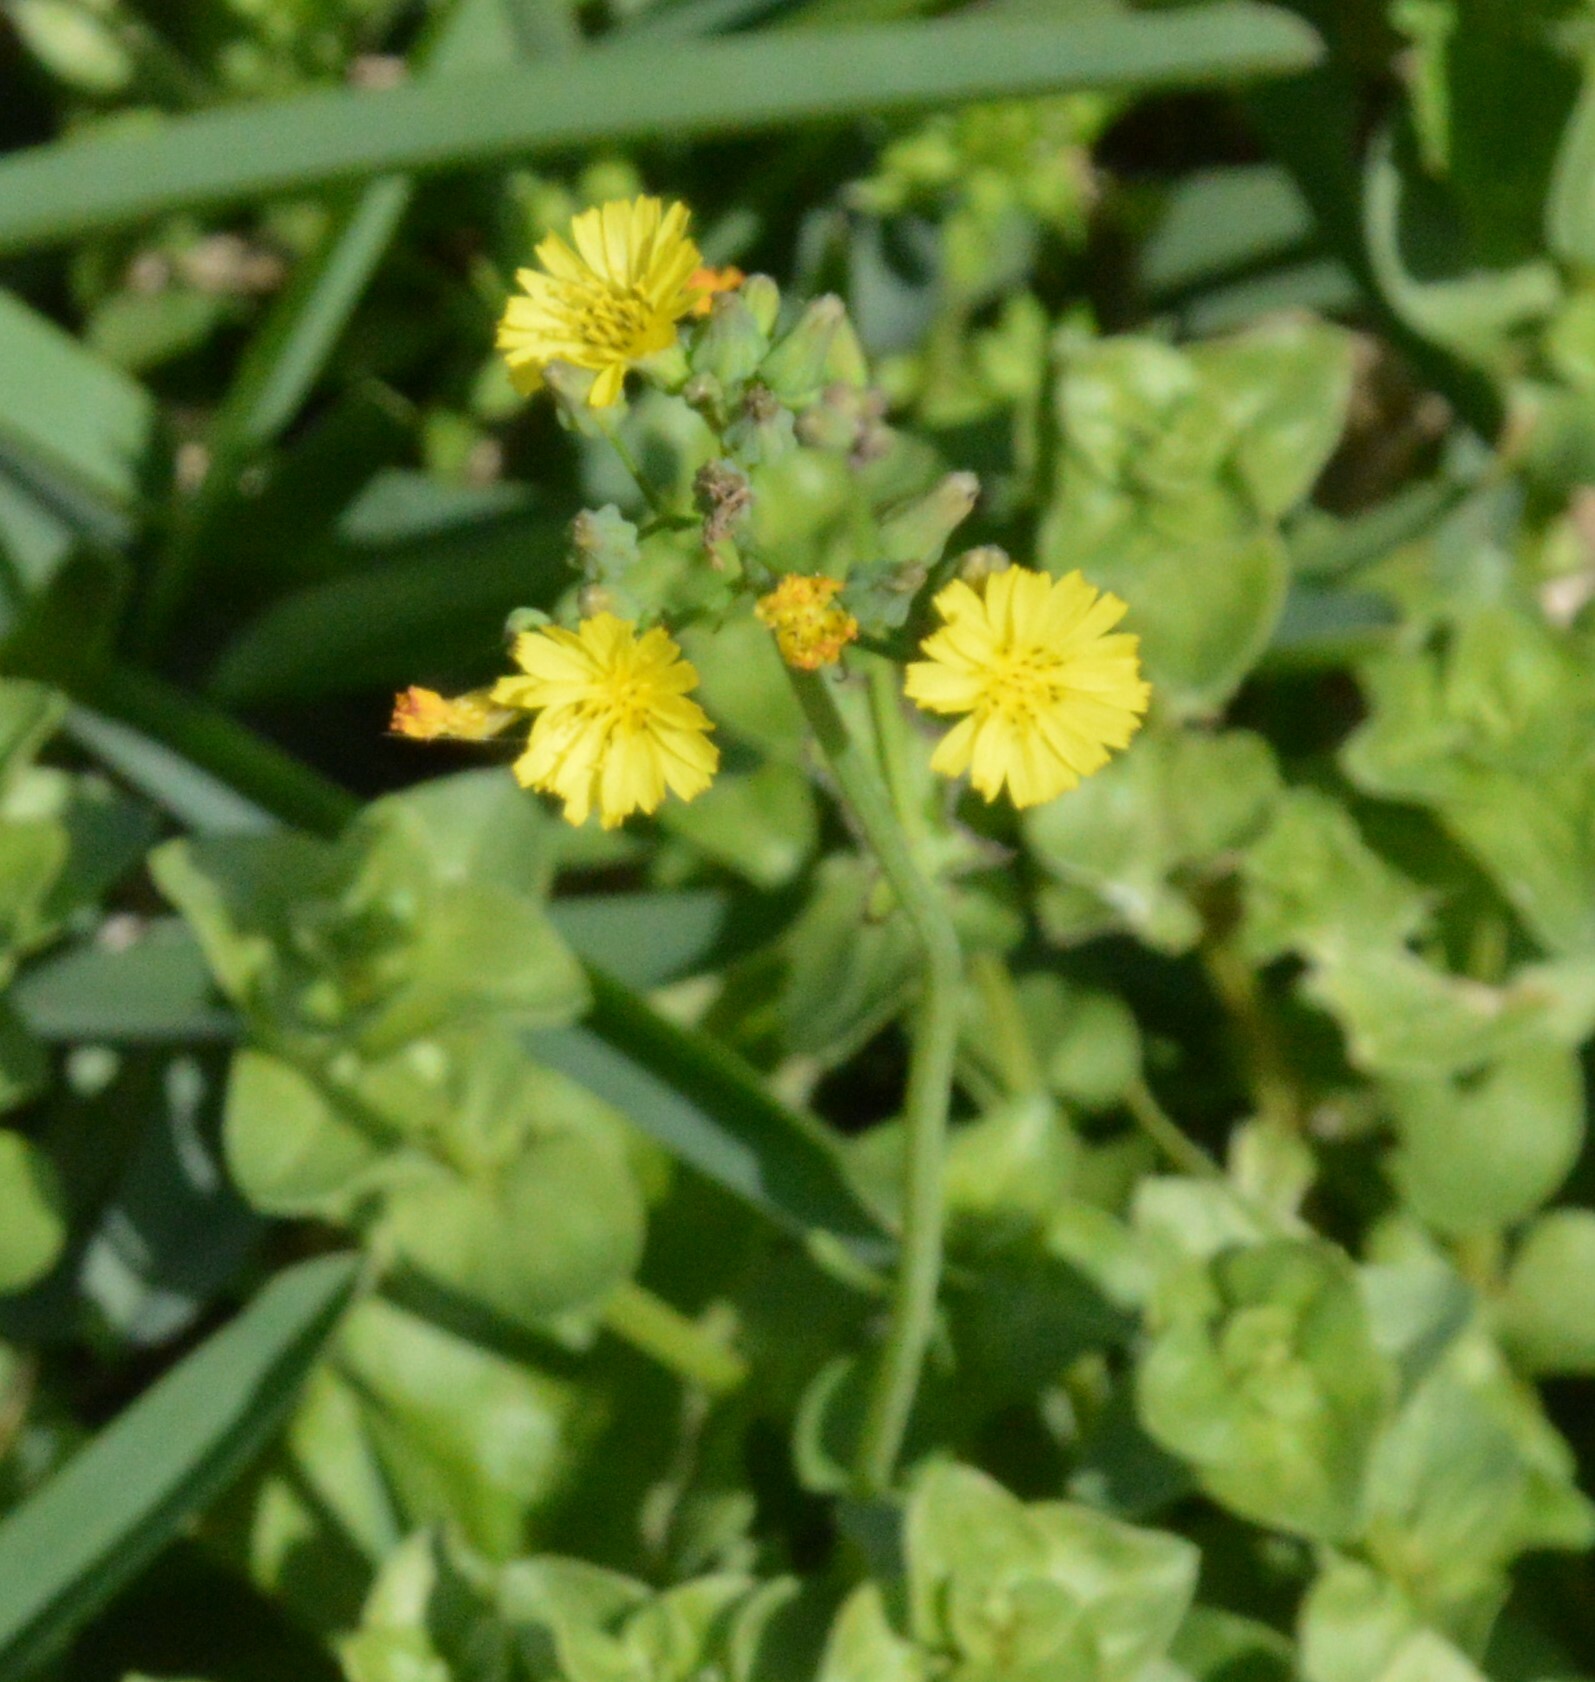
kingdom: Plantae
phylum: Tracheophyta
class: Magnoliopsida
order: Asterales
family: Asteraceae
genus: Youngia
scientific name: Youngia japonica
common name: Oriental false hawksbeard
